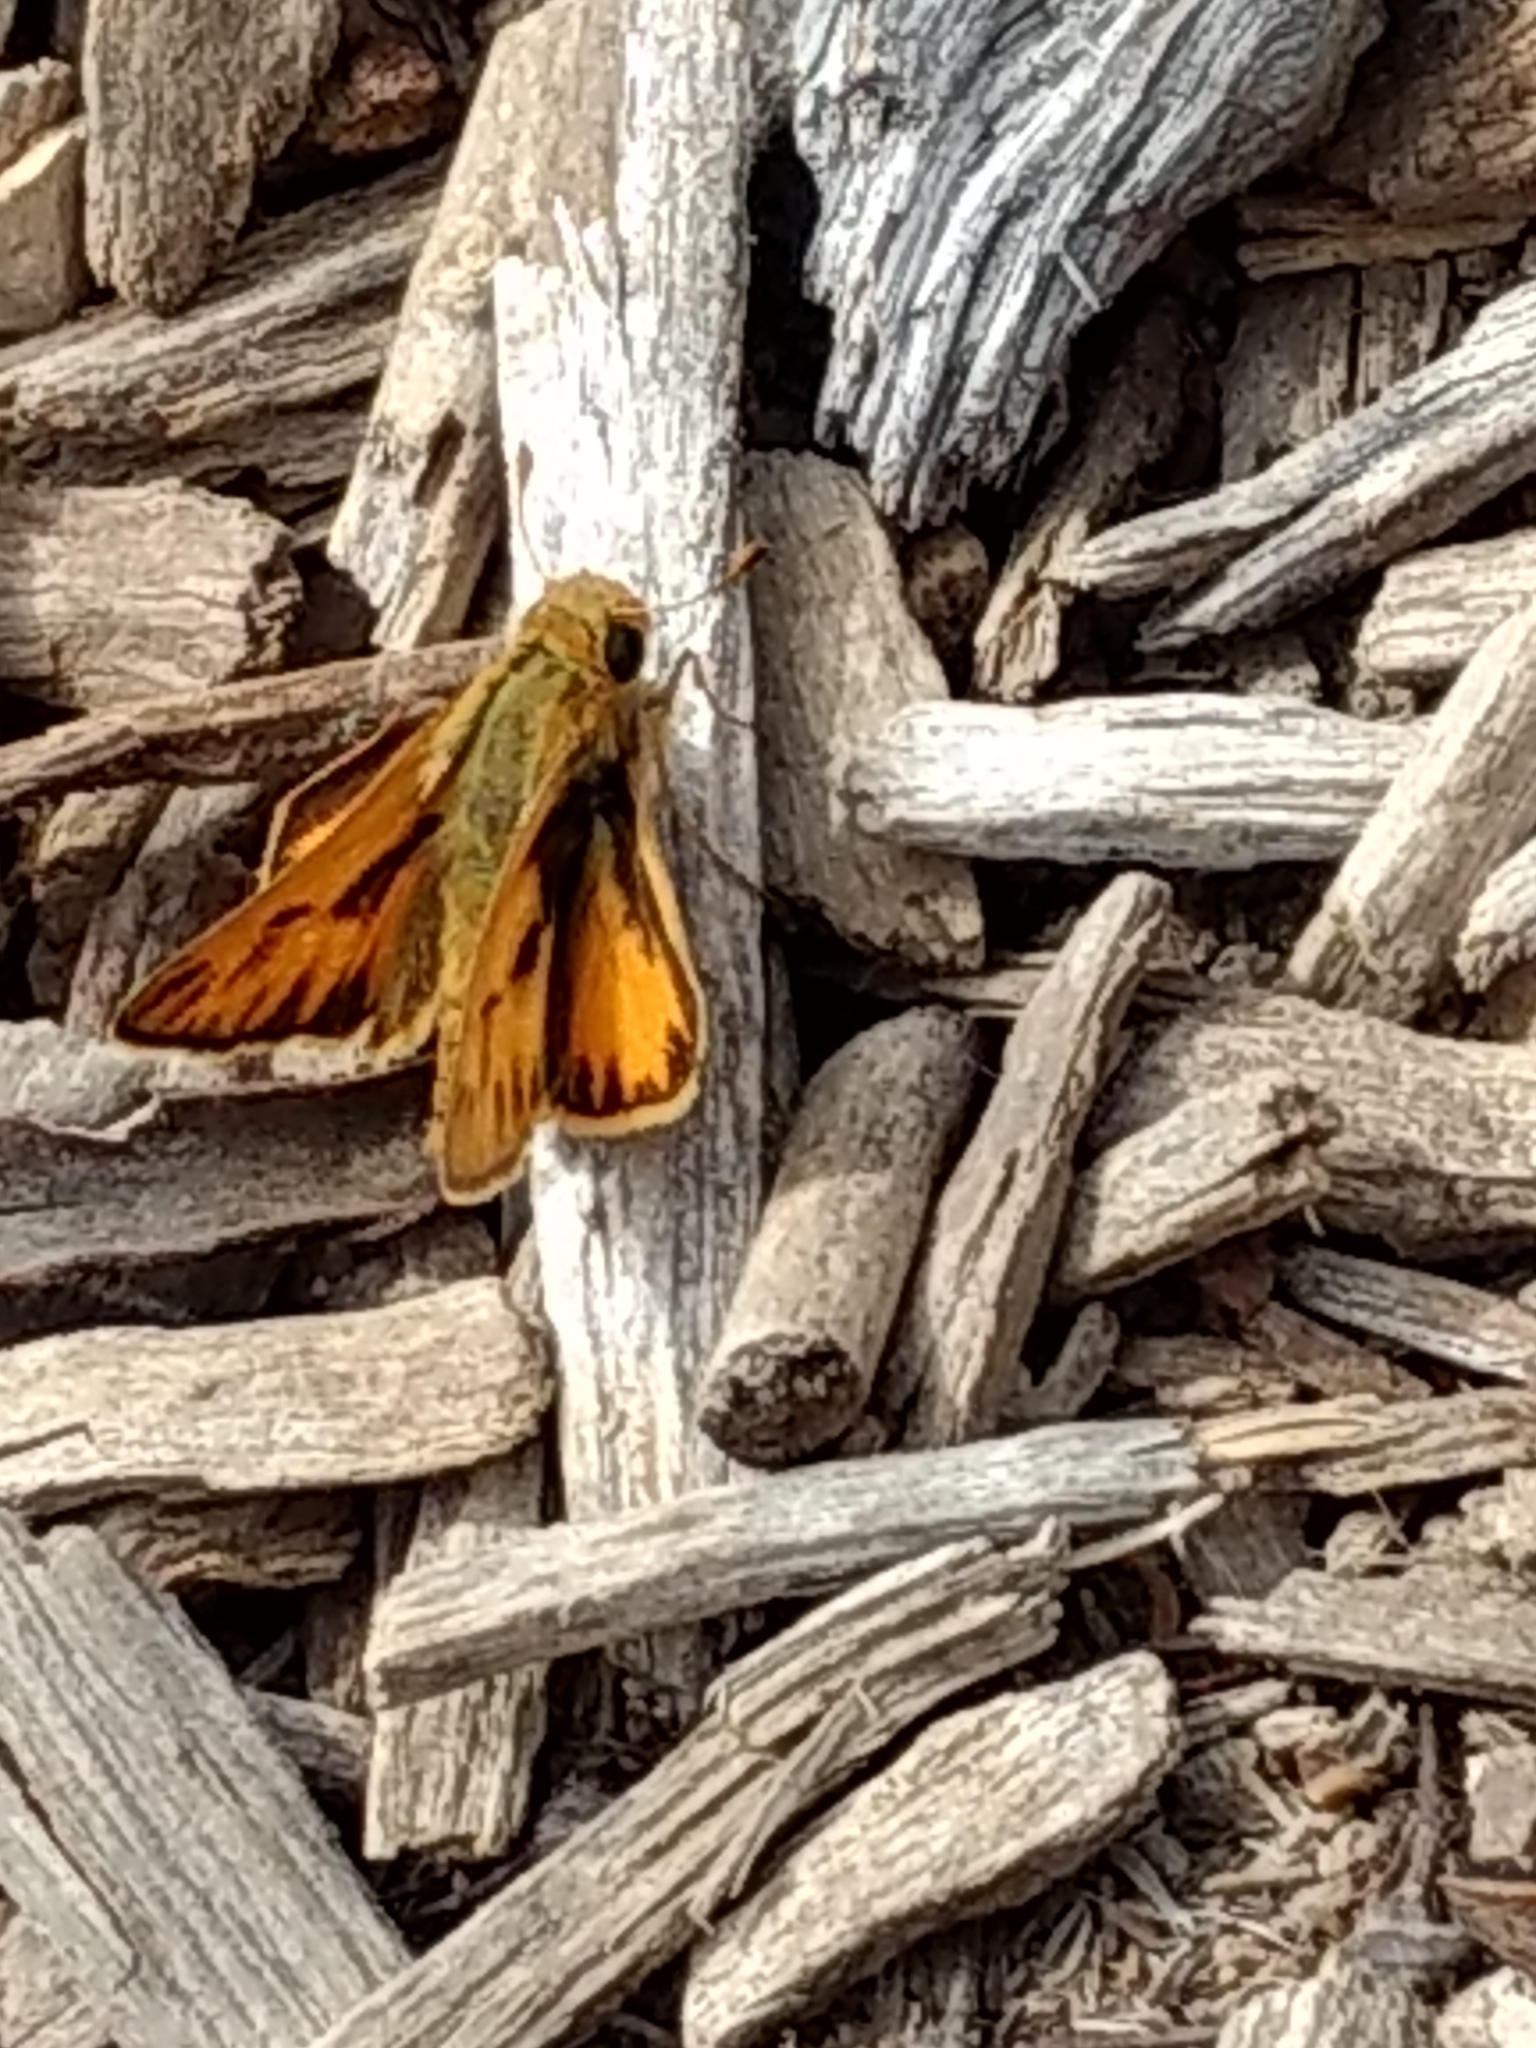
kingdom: Animalia
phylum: Arthropoda
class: Insecta
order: Lepidoptera
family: Hesperiidae
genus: Hylephila
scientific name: Hylephila phyleus
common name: Fiery skipper
